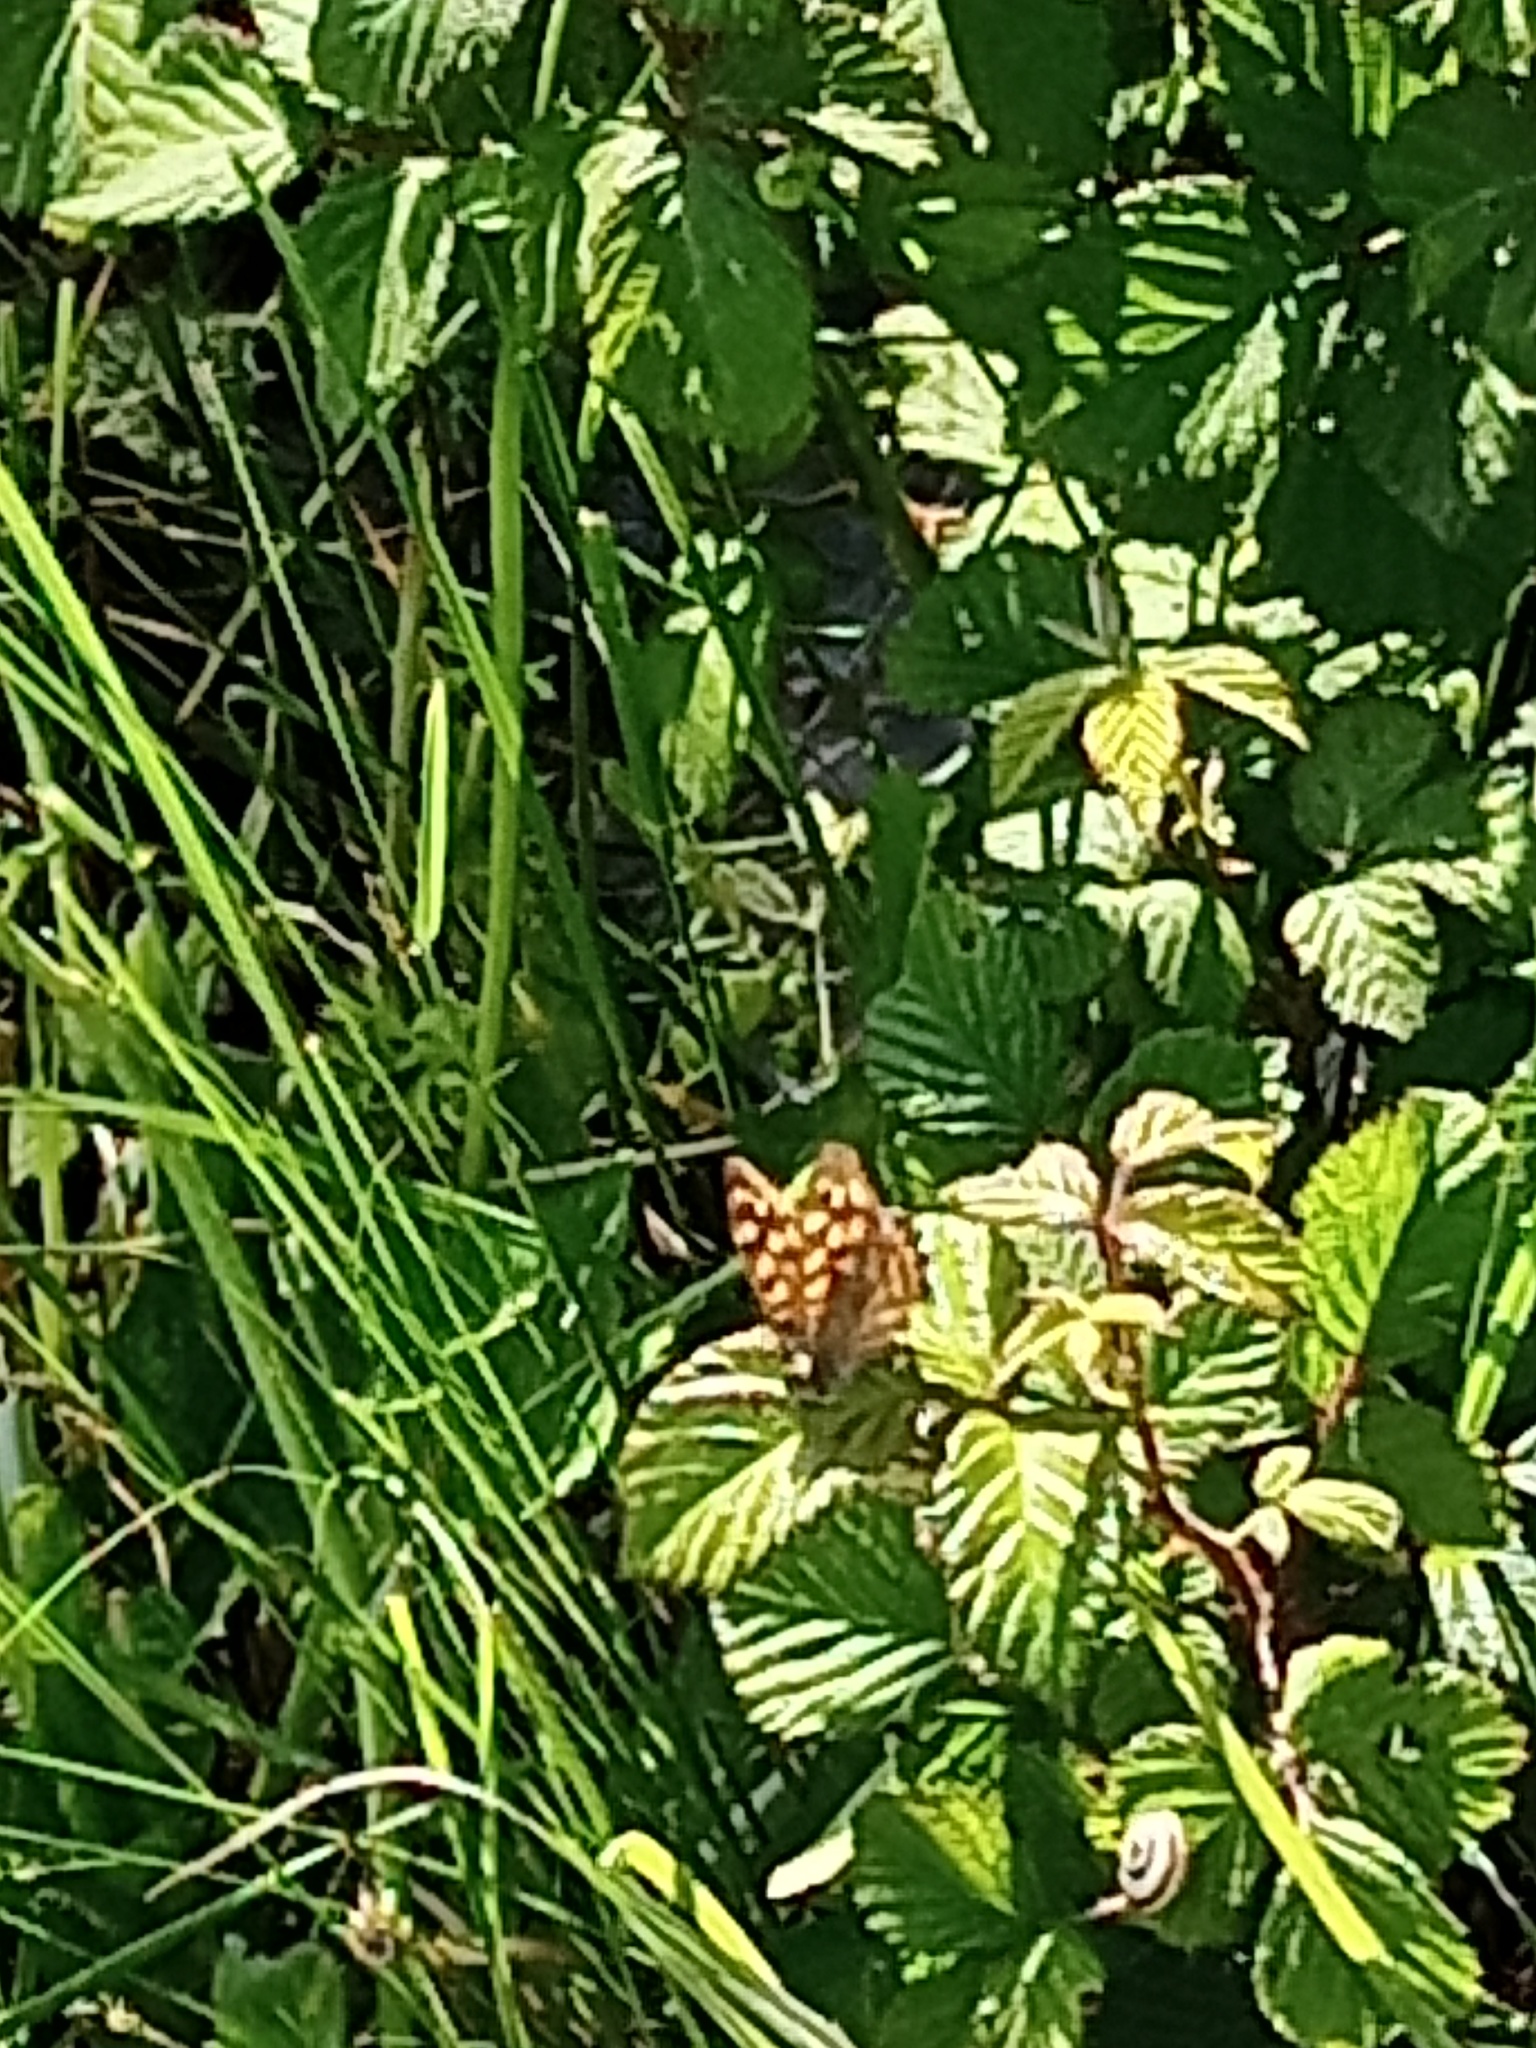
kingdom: Animalia
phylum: Arthropoda
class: Insecta
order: Lepidoptera
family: Nymphalidae
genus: Pararge
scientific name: Pararge aegeria
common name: Speckled wood
